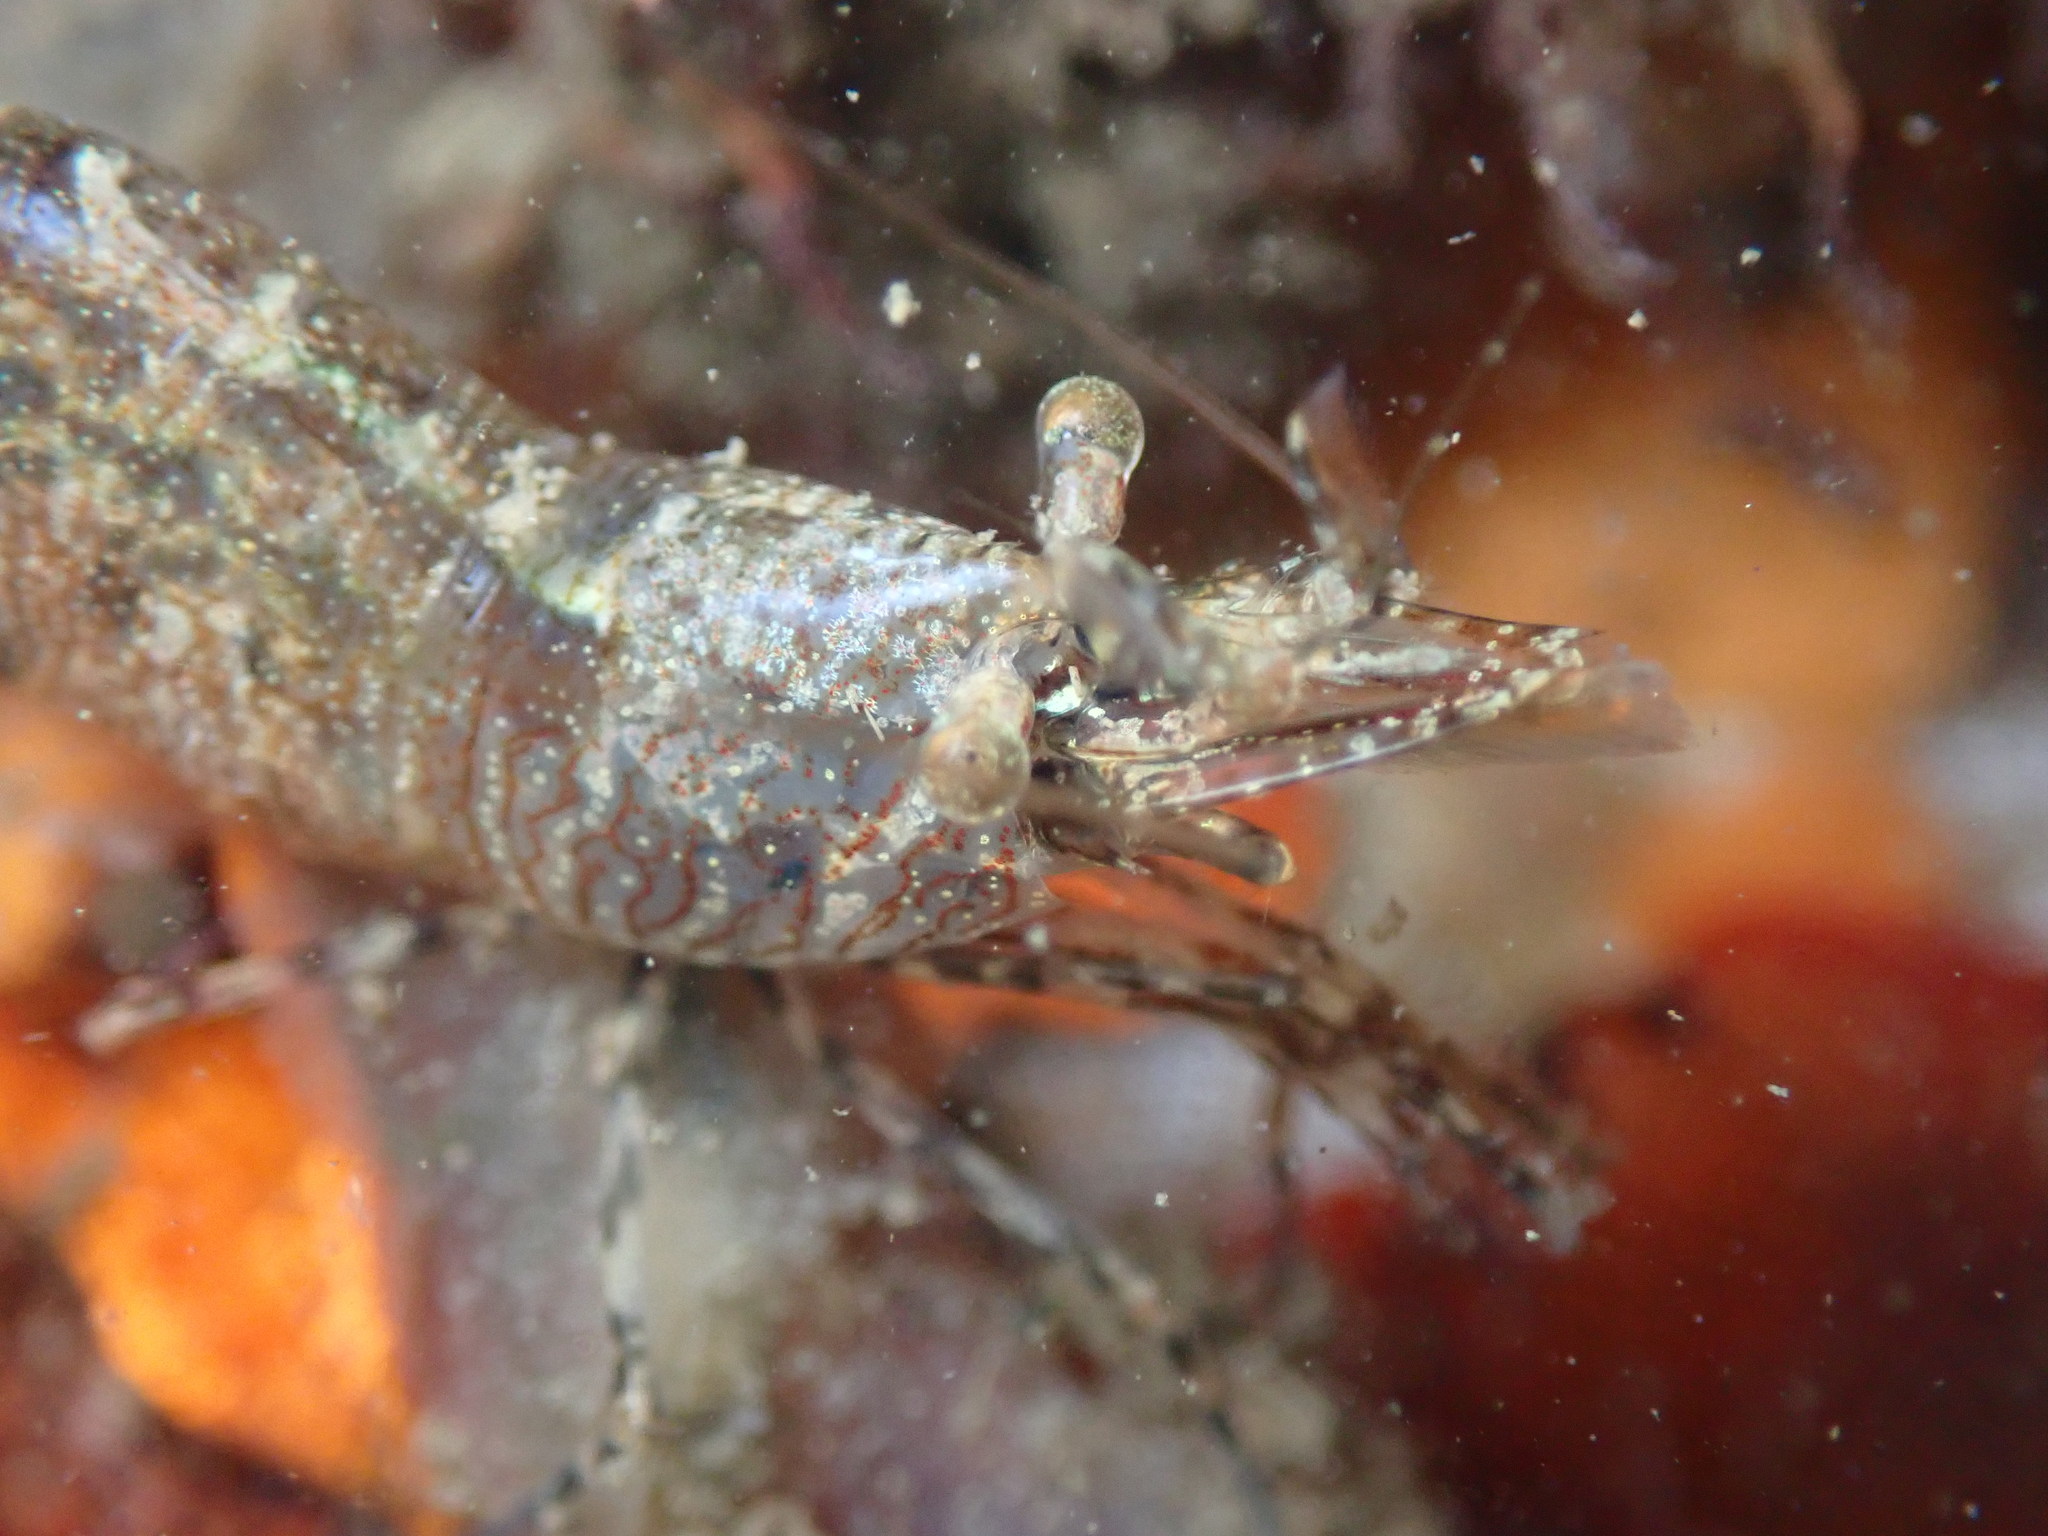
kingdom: Animalia
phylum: Arthropoda
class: Malacostraca
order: Decapoda
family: Thoridae
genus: Heptacarpus
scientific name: Heptacarpus sitchensis
